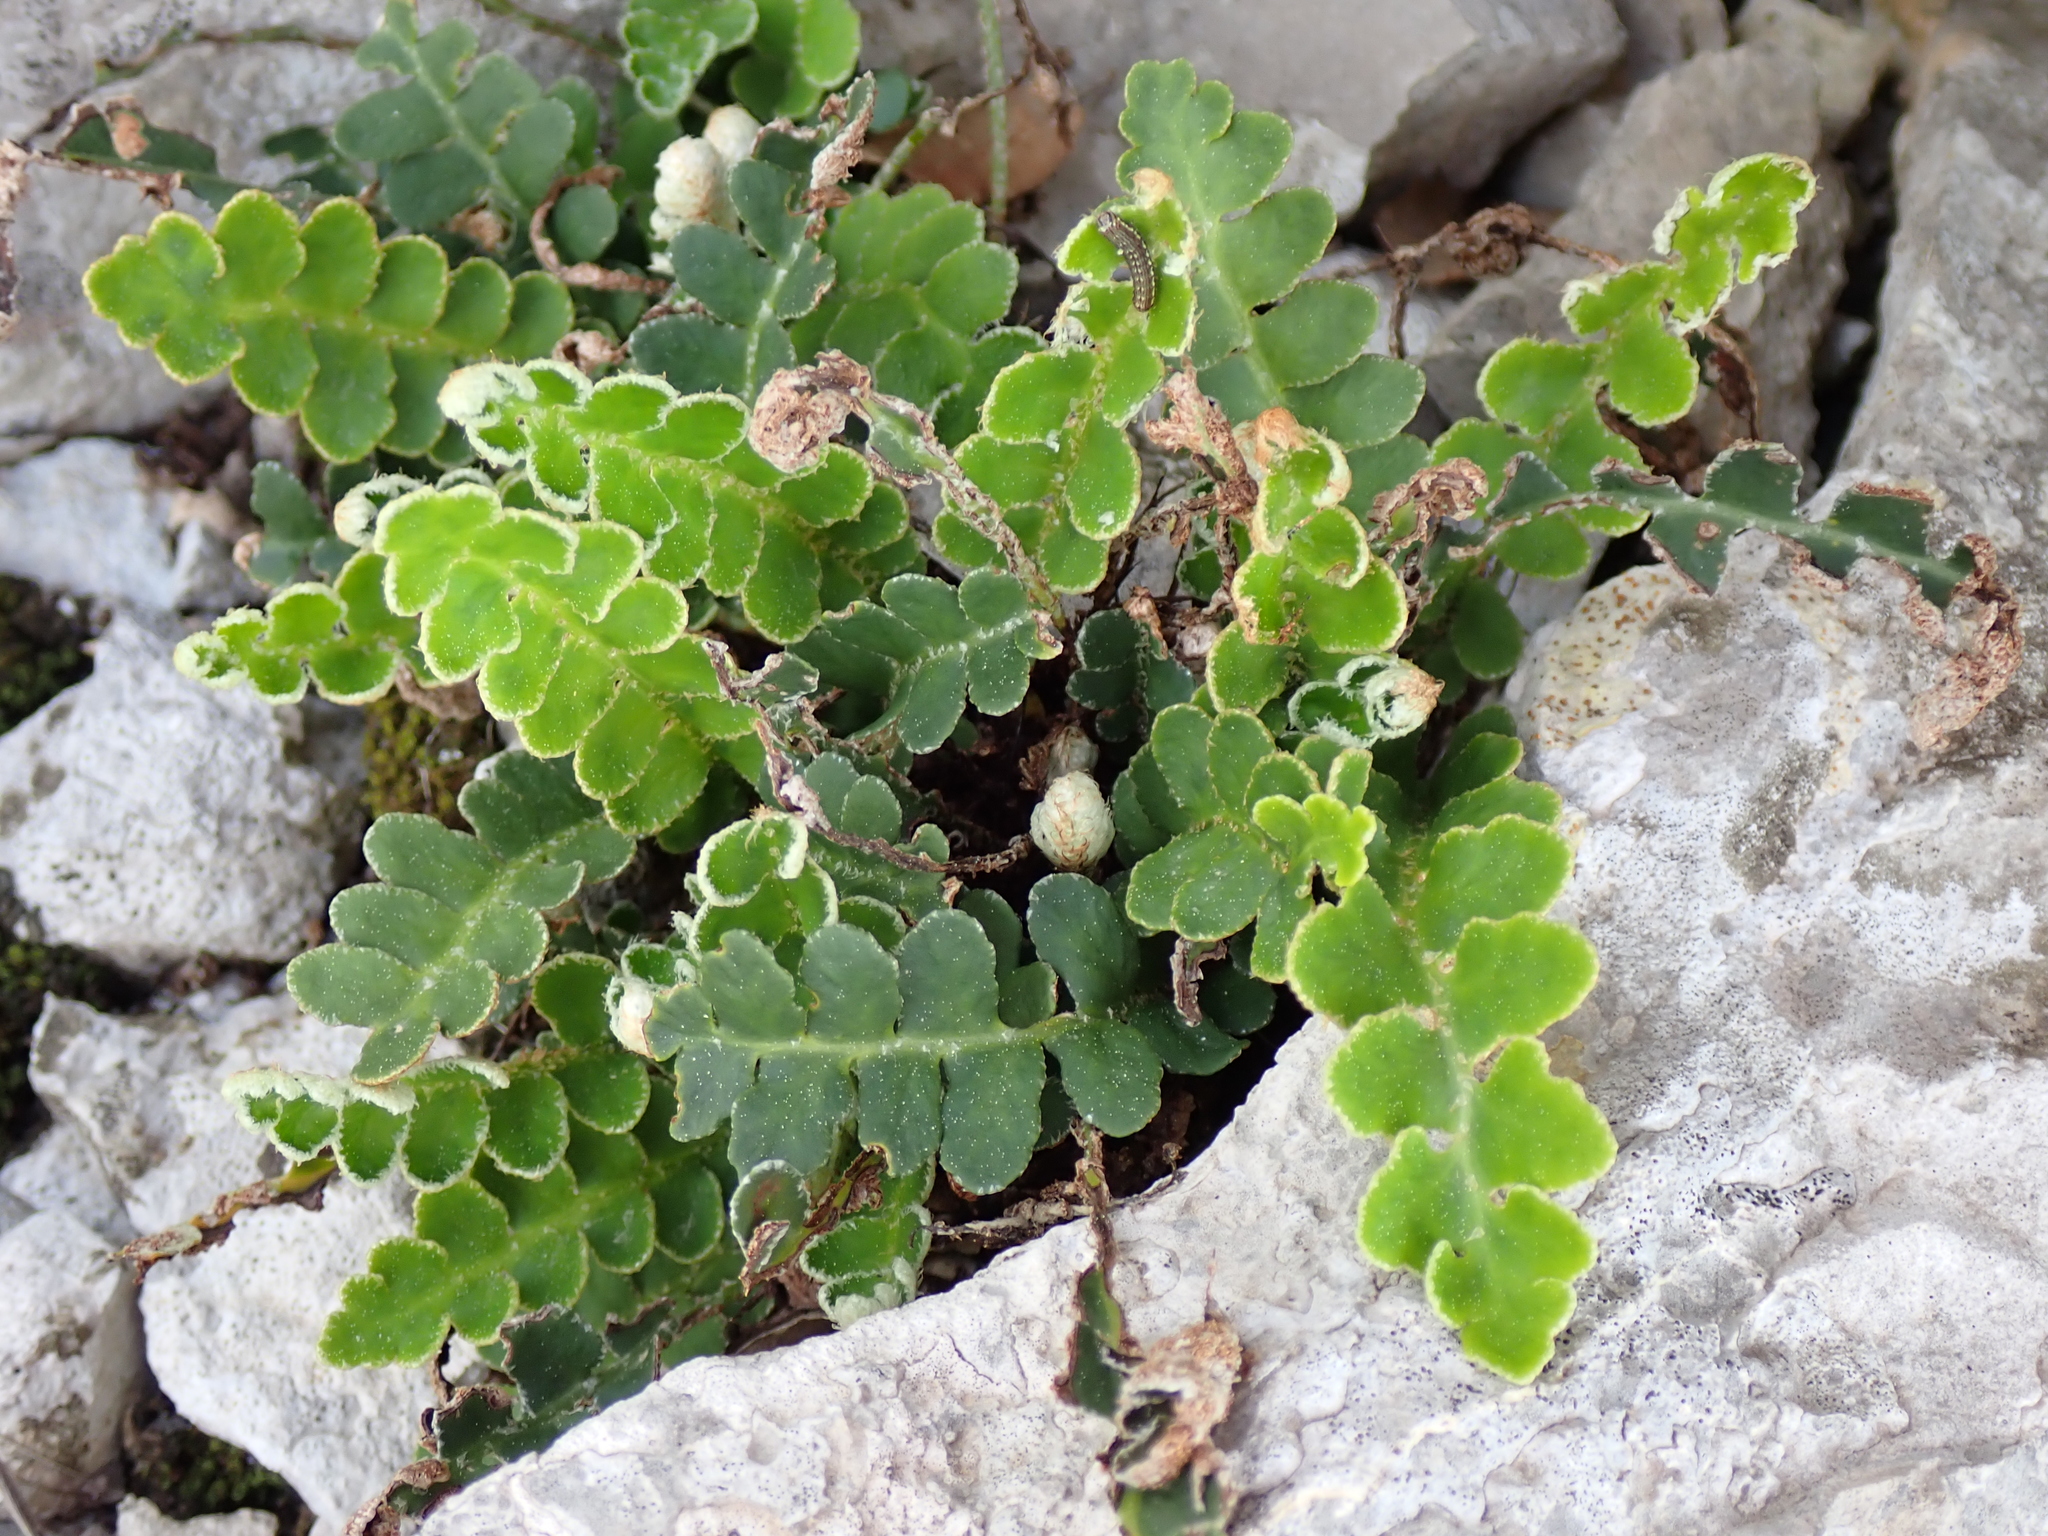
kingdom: Plantae
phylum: Tracheophyta
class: Polypodiopsida
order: Polypodiales
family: Aspleniaceae
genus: Asplenium
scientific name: Asplenium ceterach
